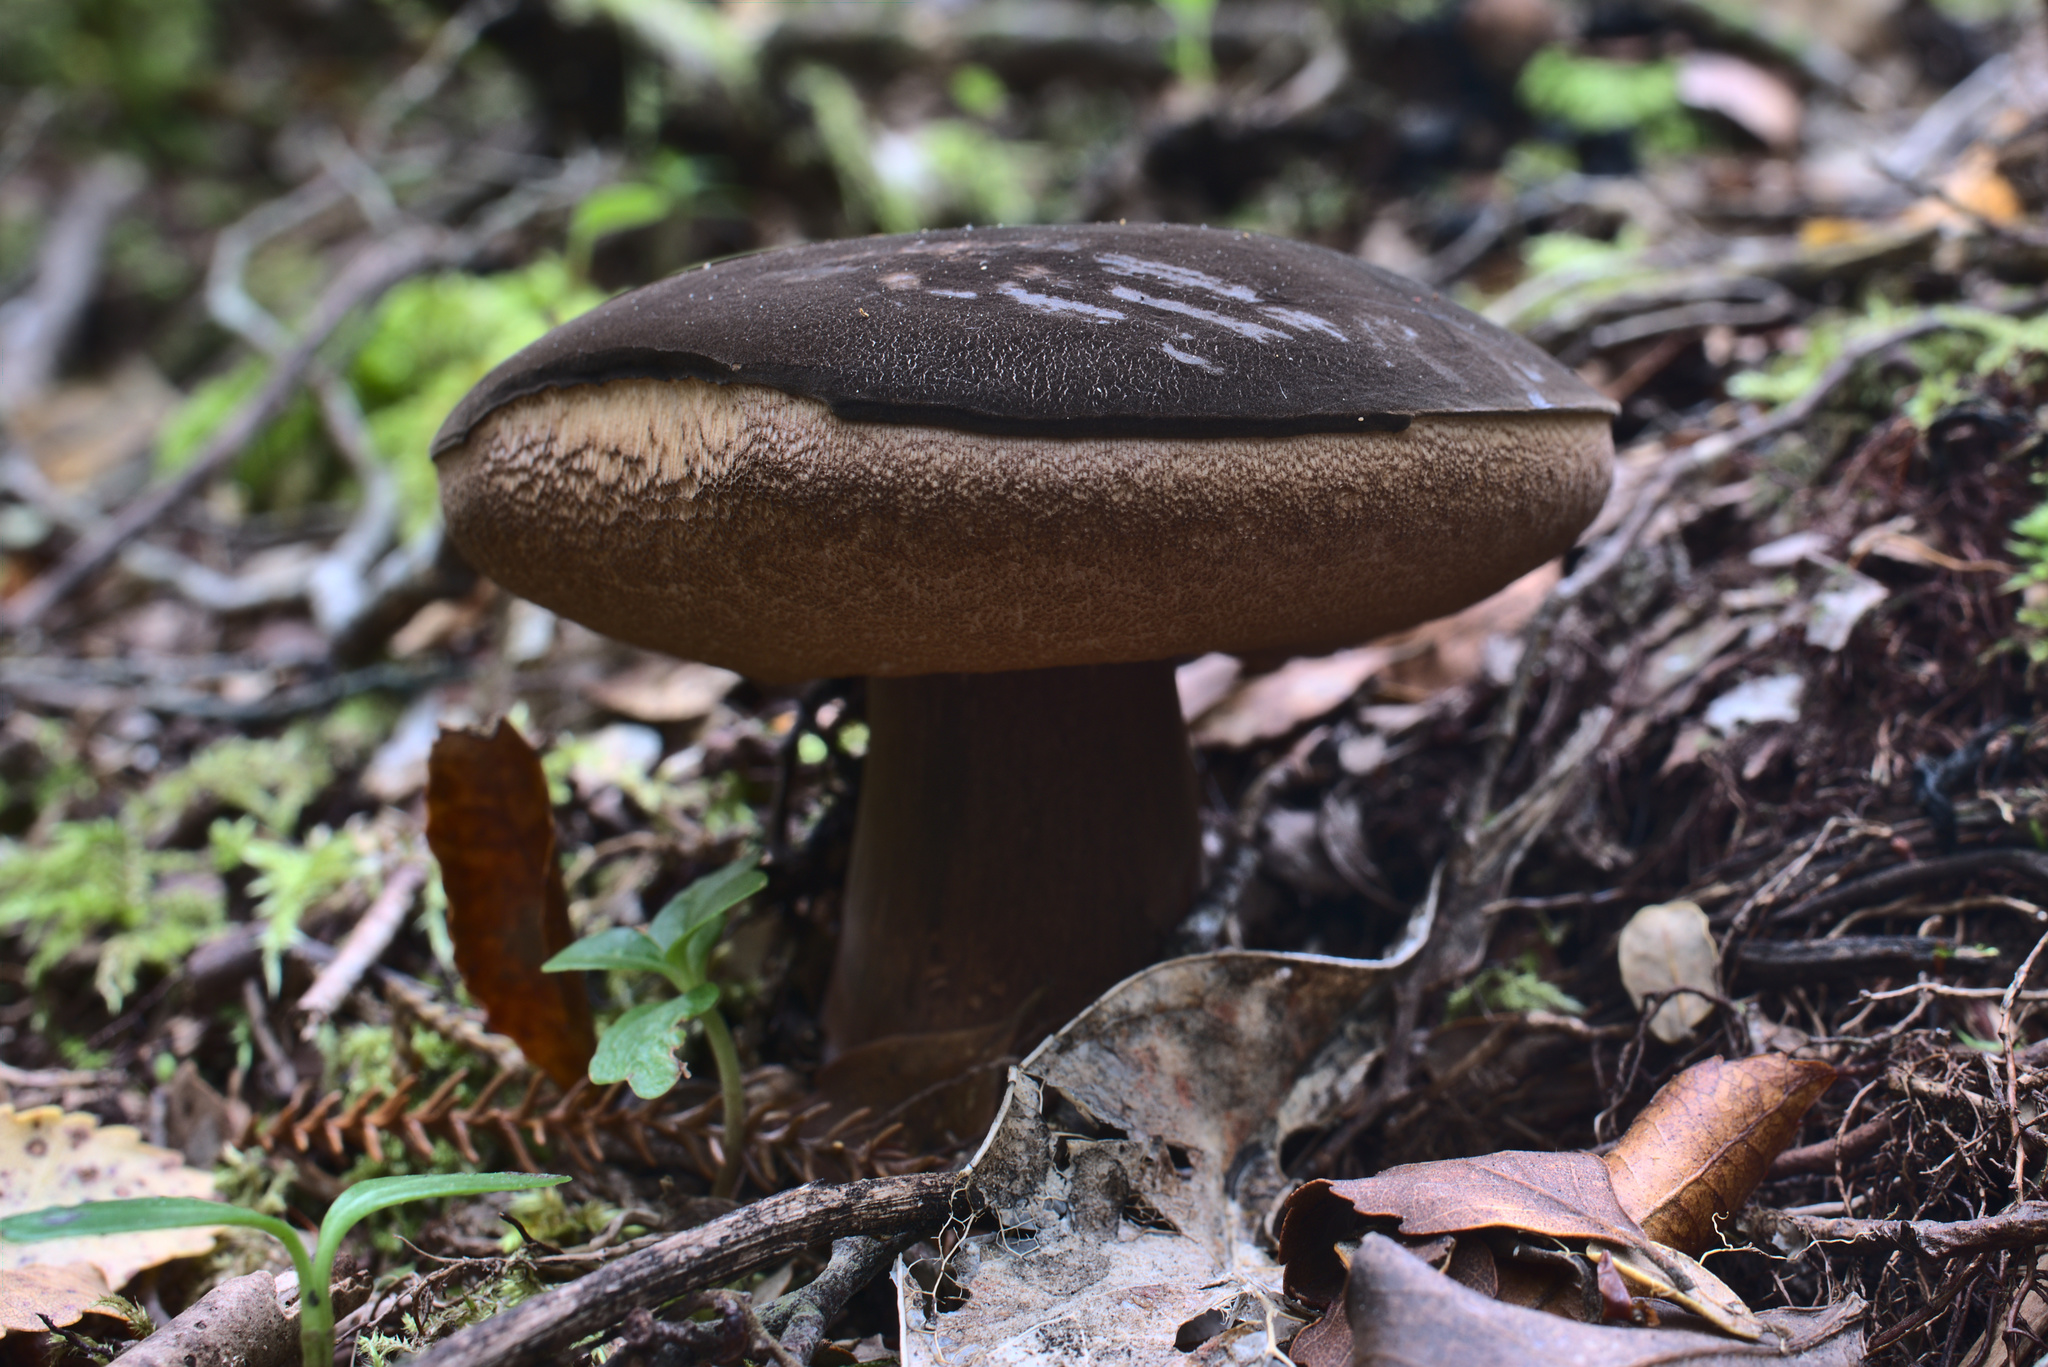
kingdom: Fungi
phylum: Basidiomycota
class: Agaricomycetes
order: Boletales
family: Boletaceae
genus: Porphyrellus
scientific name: Porphyrellus formosus
